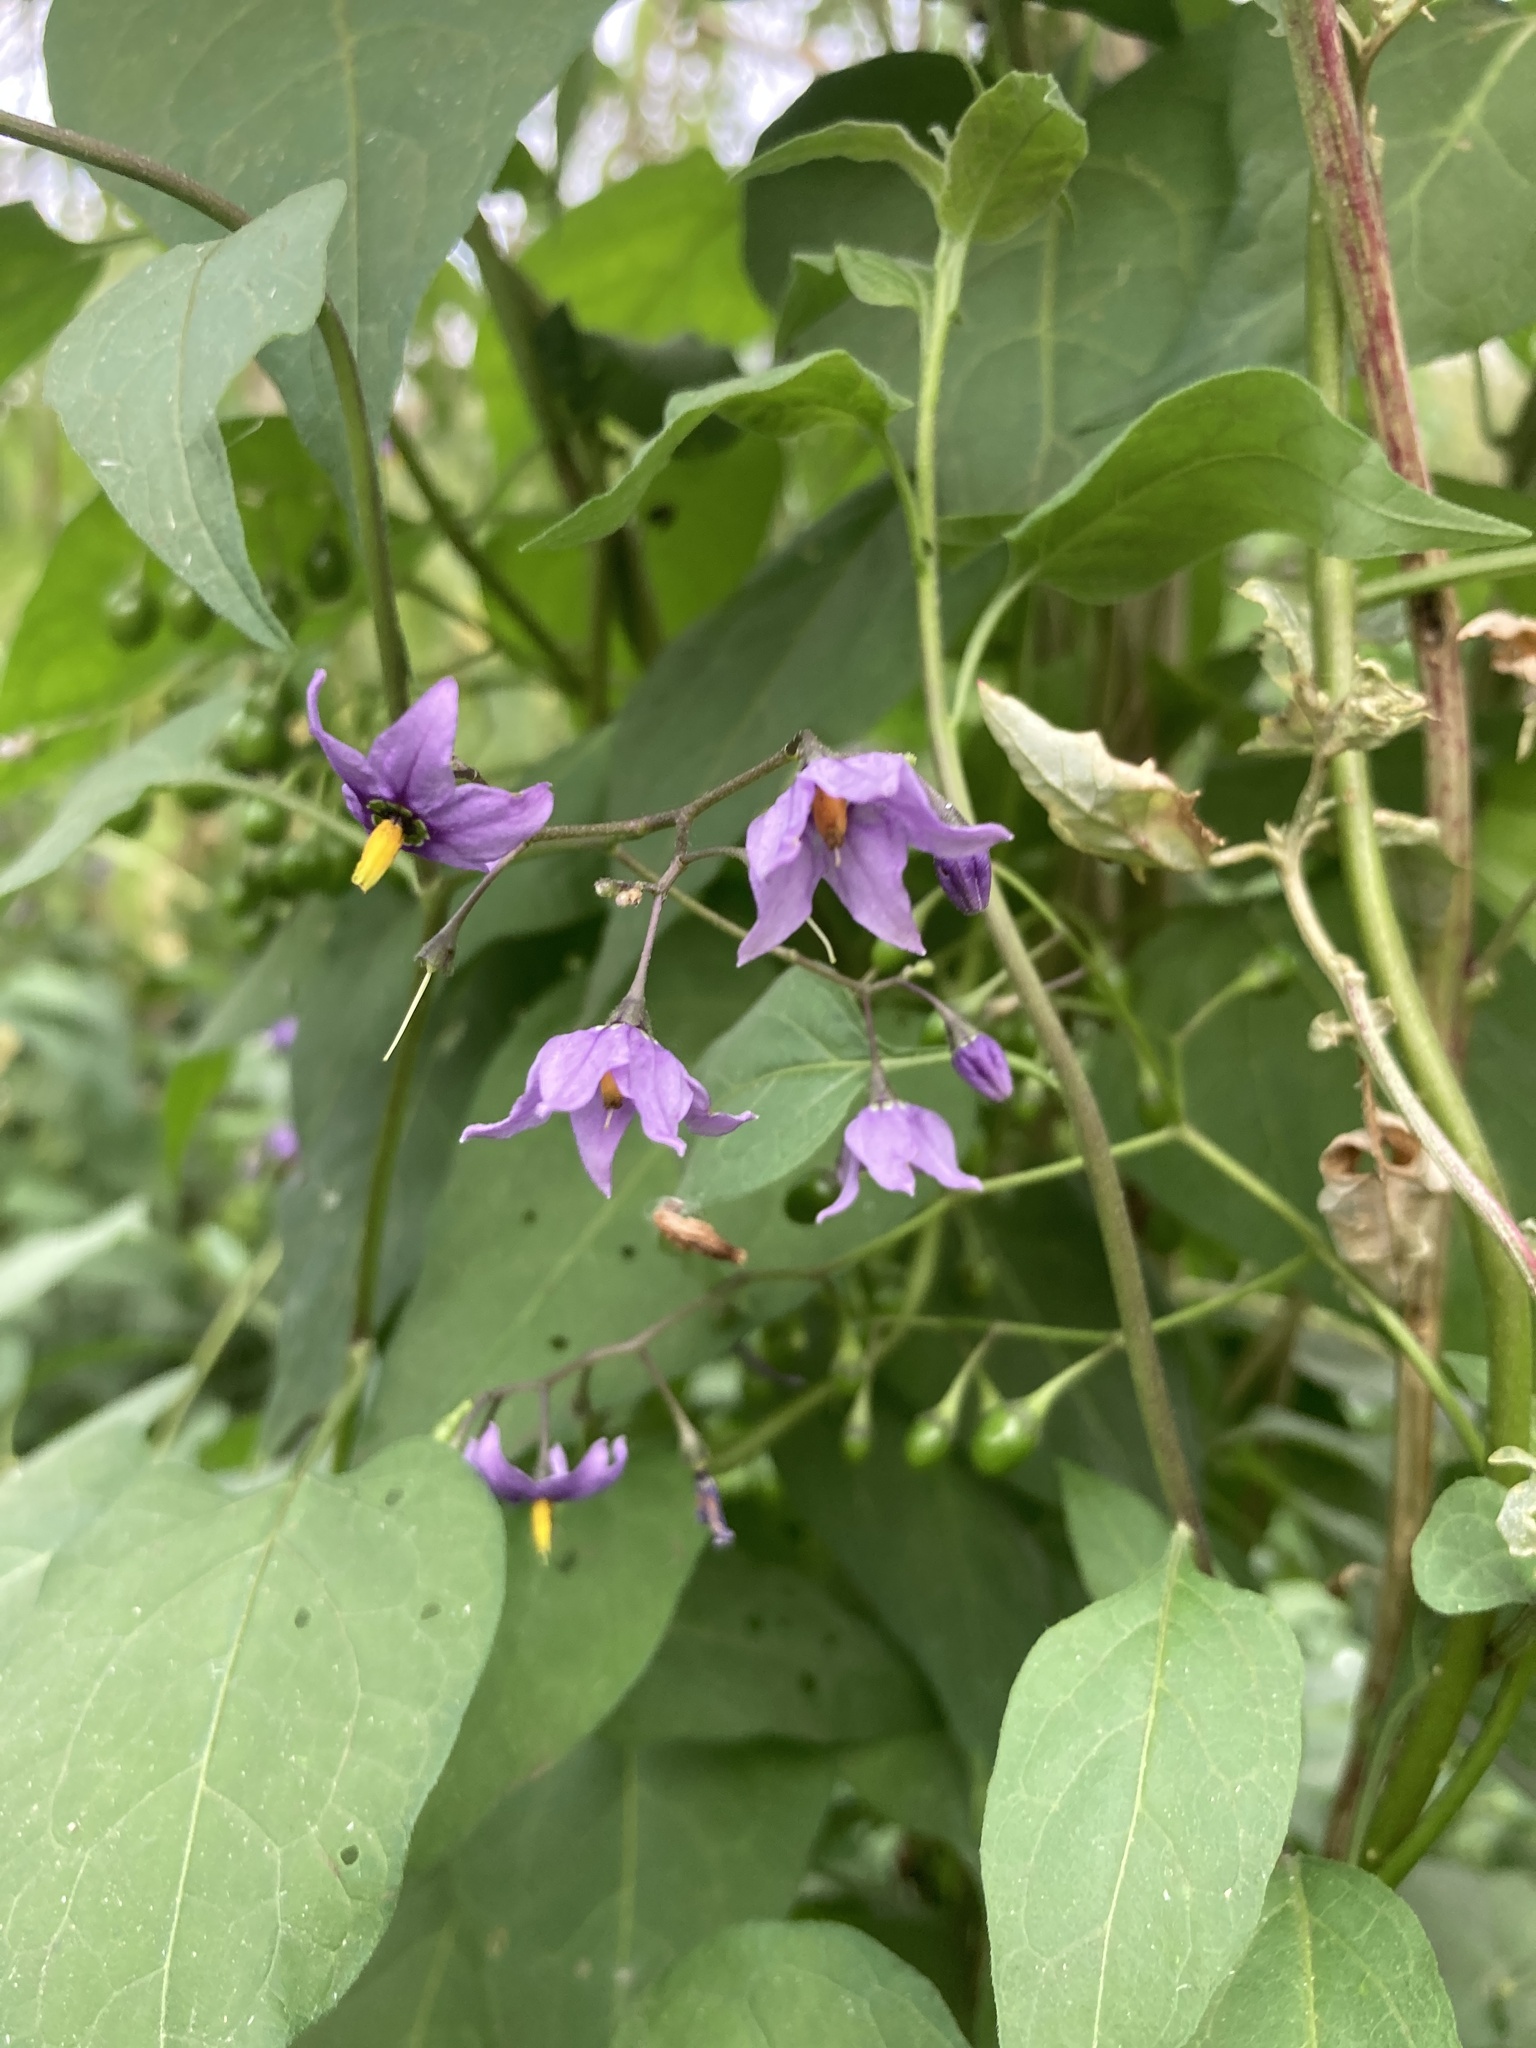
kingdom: Plantae
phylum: Tracheophyta
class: Magnoliopsida
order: Solanales
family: Solanaceae
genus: Solanum
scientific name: Solanum dulcamara
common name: Climbing nightshade
